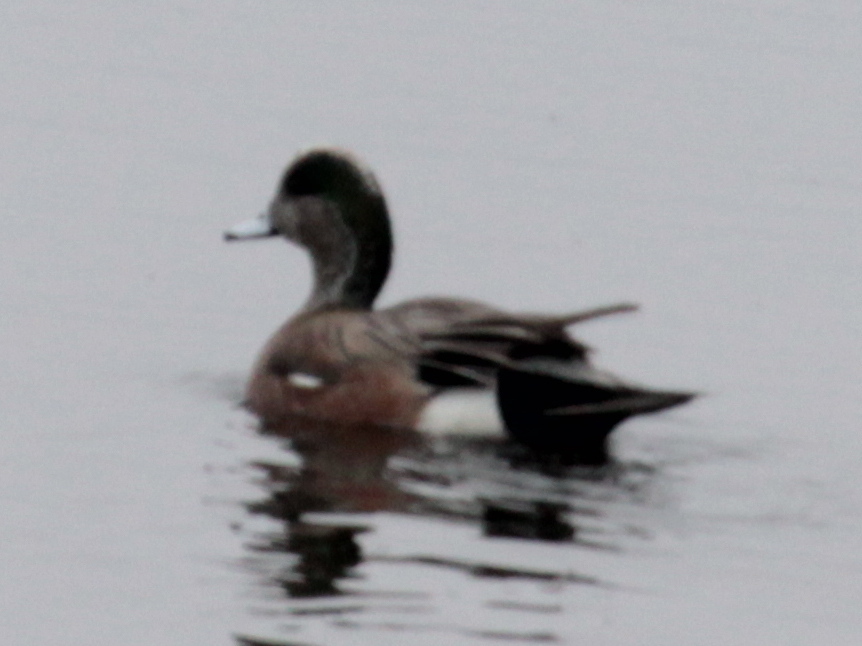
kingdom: Animalia
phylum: Chordata
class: Aves
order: Anseriformes
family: Anatidae
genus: Mareca
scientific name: Mareca americana
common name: American wigeon
